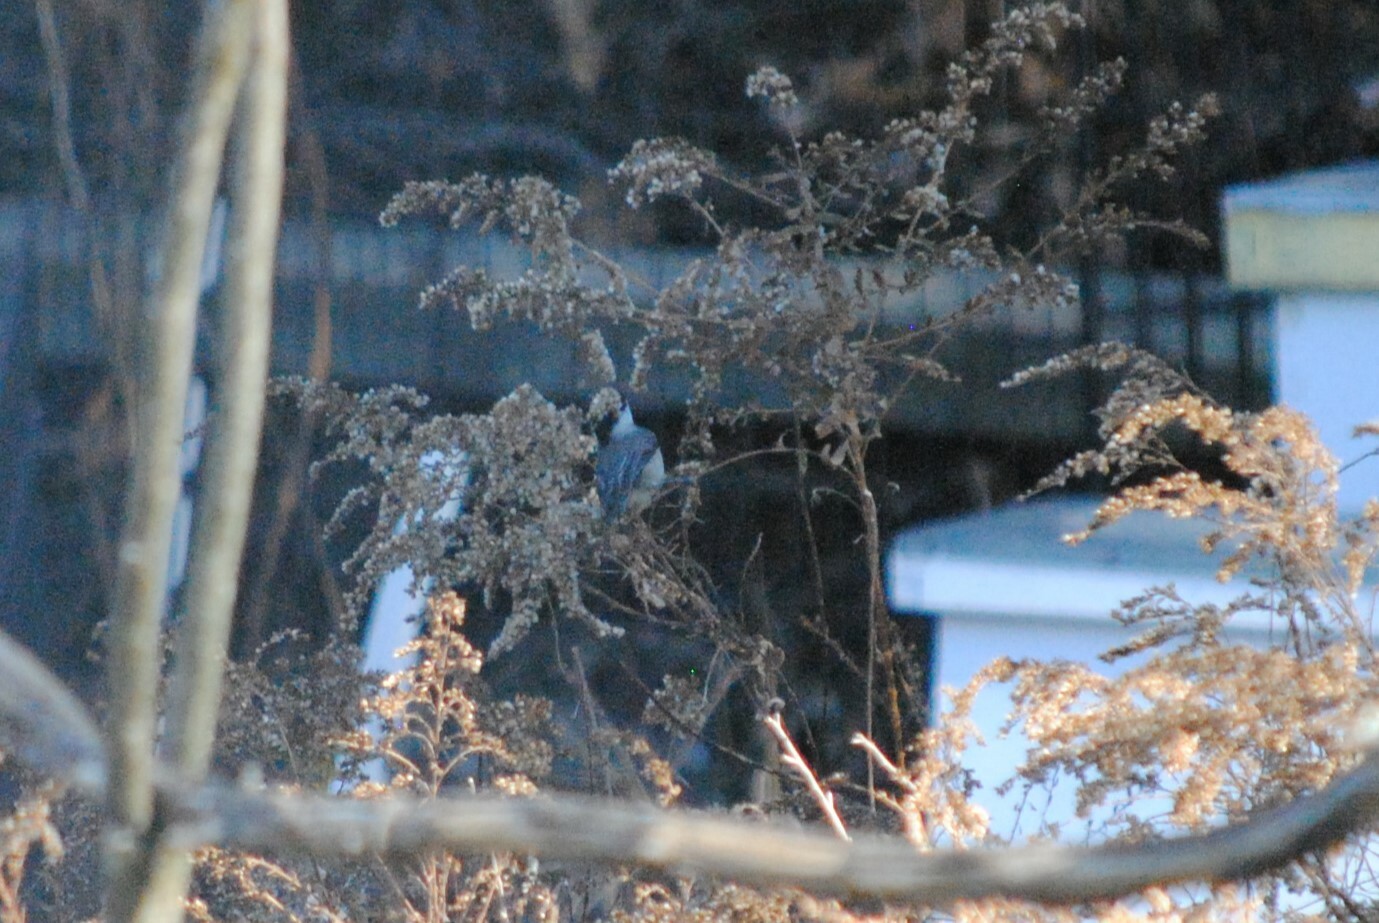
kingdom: Animalia
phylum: Chordata
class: Aves
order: Passeriformes
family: Paridae
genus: Poecile
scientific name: Poecile carolinensis
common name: Carolina chickadee
